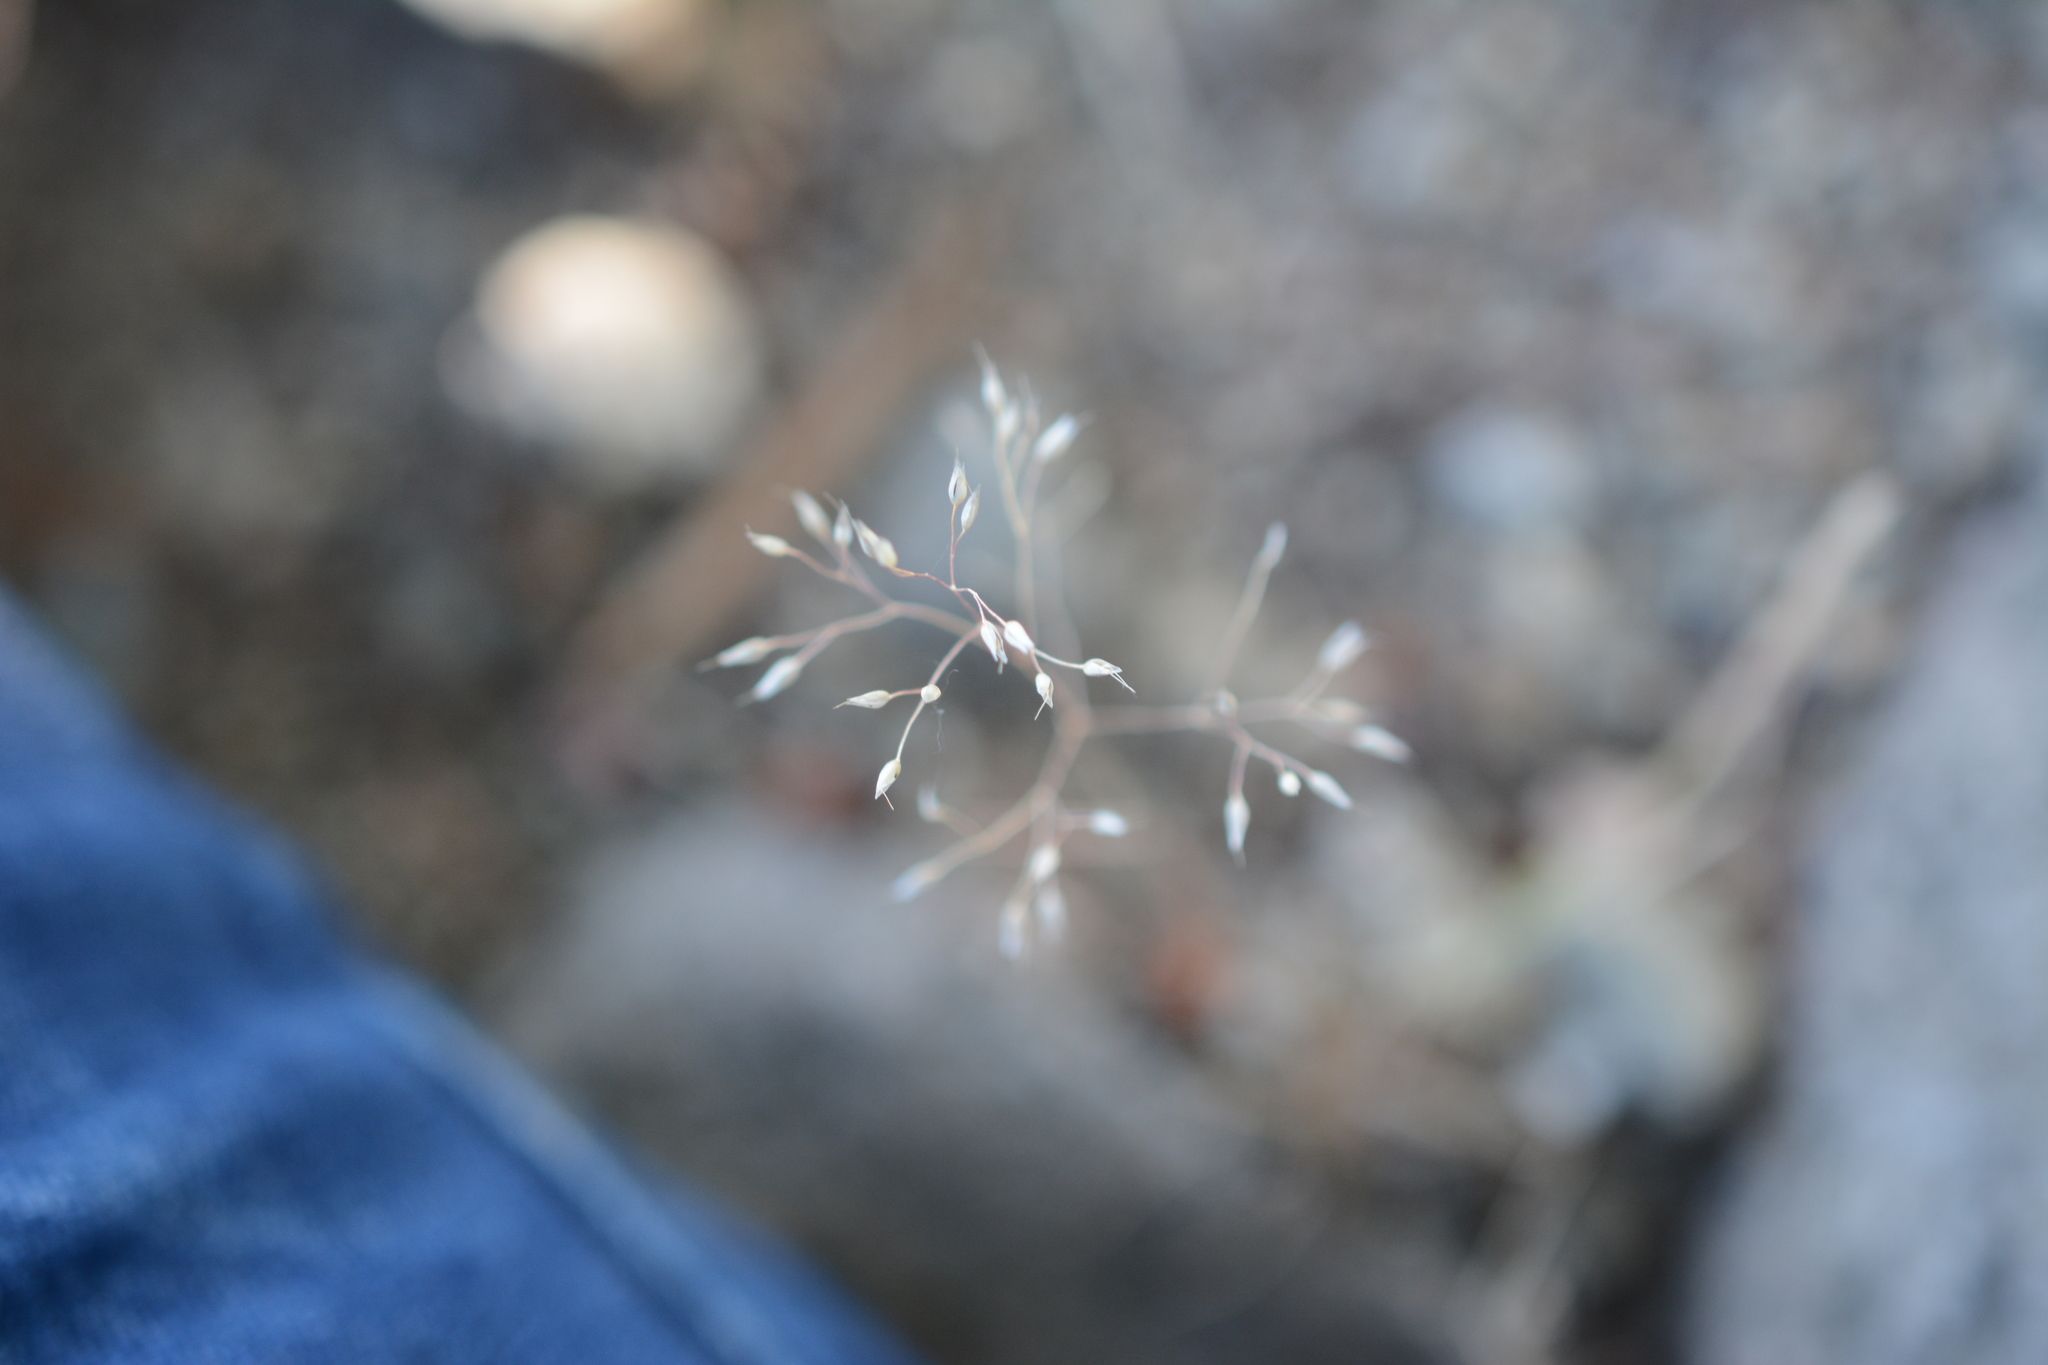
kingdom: Plantae
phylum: Tracheophyta
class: Liliopsida
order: Poales
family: Poaceae
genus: Aira
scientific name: Aira caryophyllea
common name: Silver hairgrass
